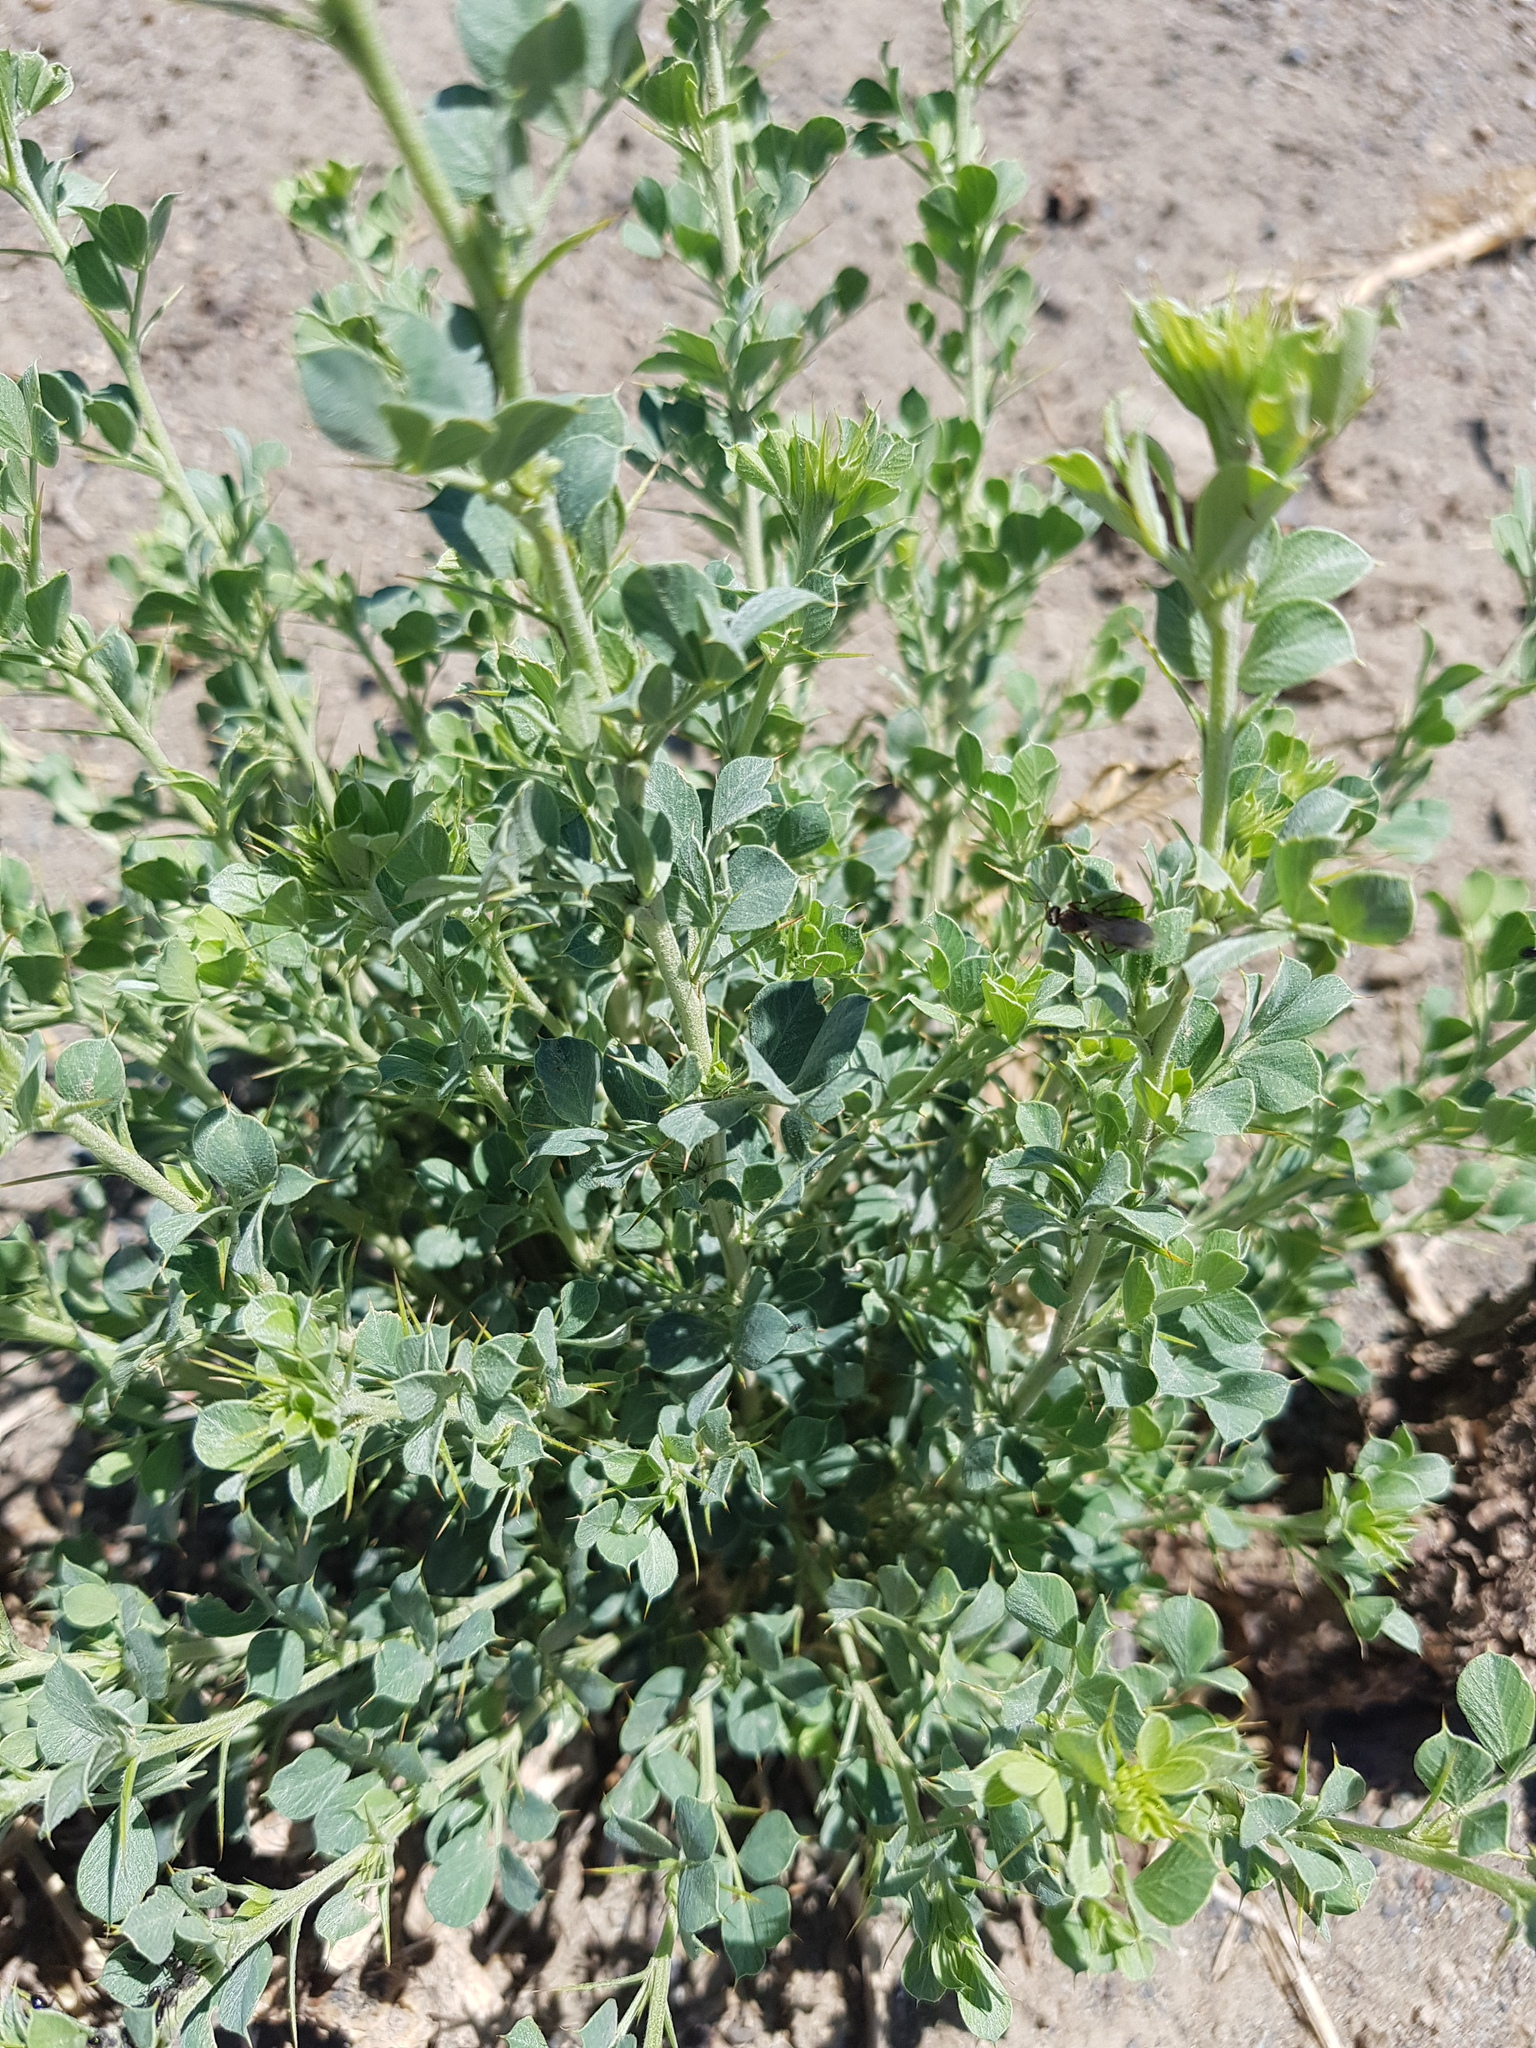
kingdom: Plantae
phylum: Tracheophyta
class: Magnoliopsida
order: Fabales
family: Fabaceae
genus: Caragana
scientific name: Caragana bungei
